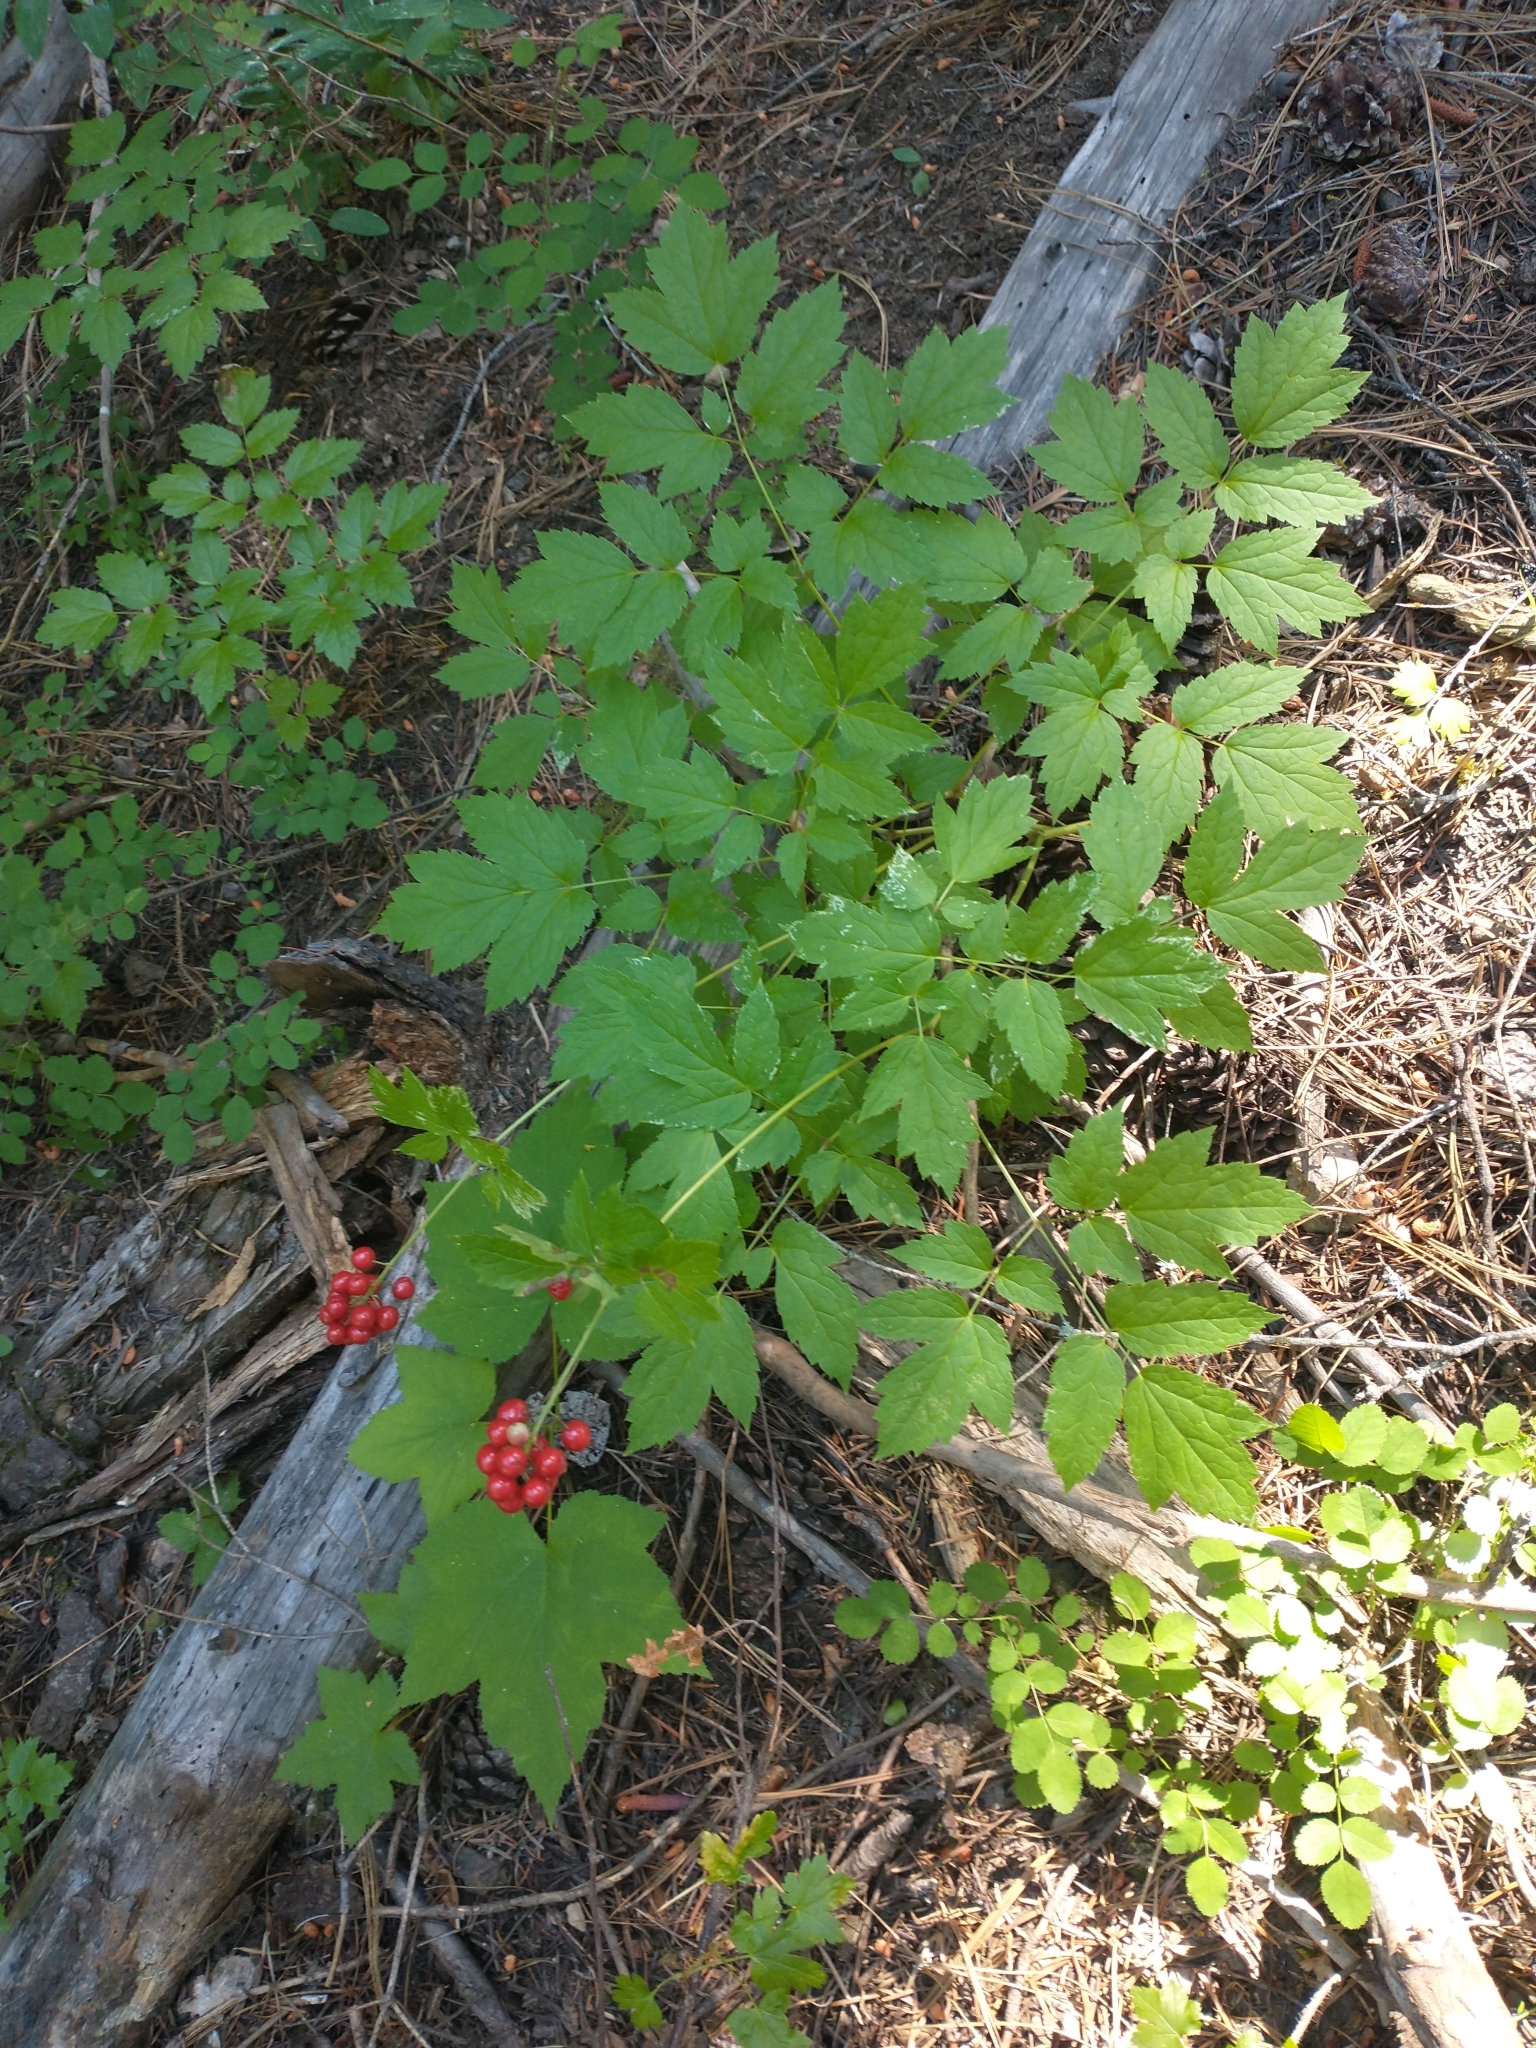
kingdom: Plantae
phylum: Tracheophyta
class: Magnoliopsida
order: Ranunculales
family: Ranunculaceae
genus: Actaea
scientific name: Actaea rubra
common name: Red baneberry
